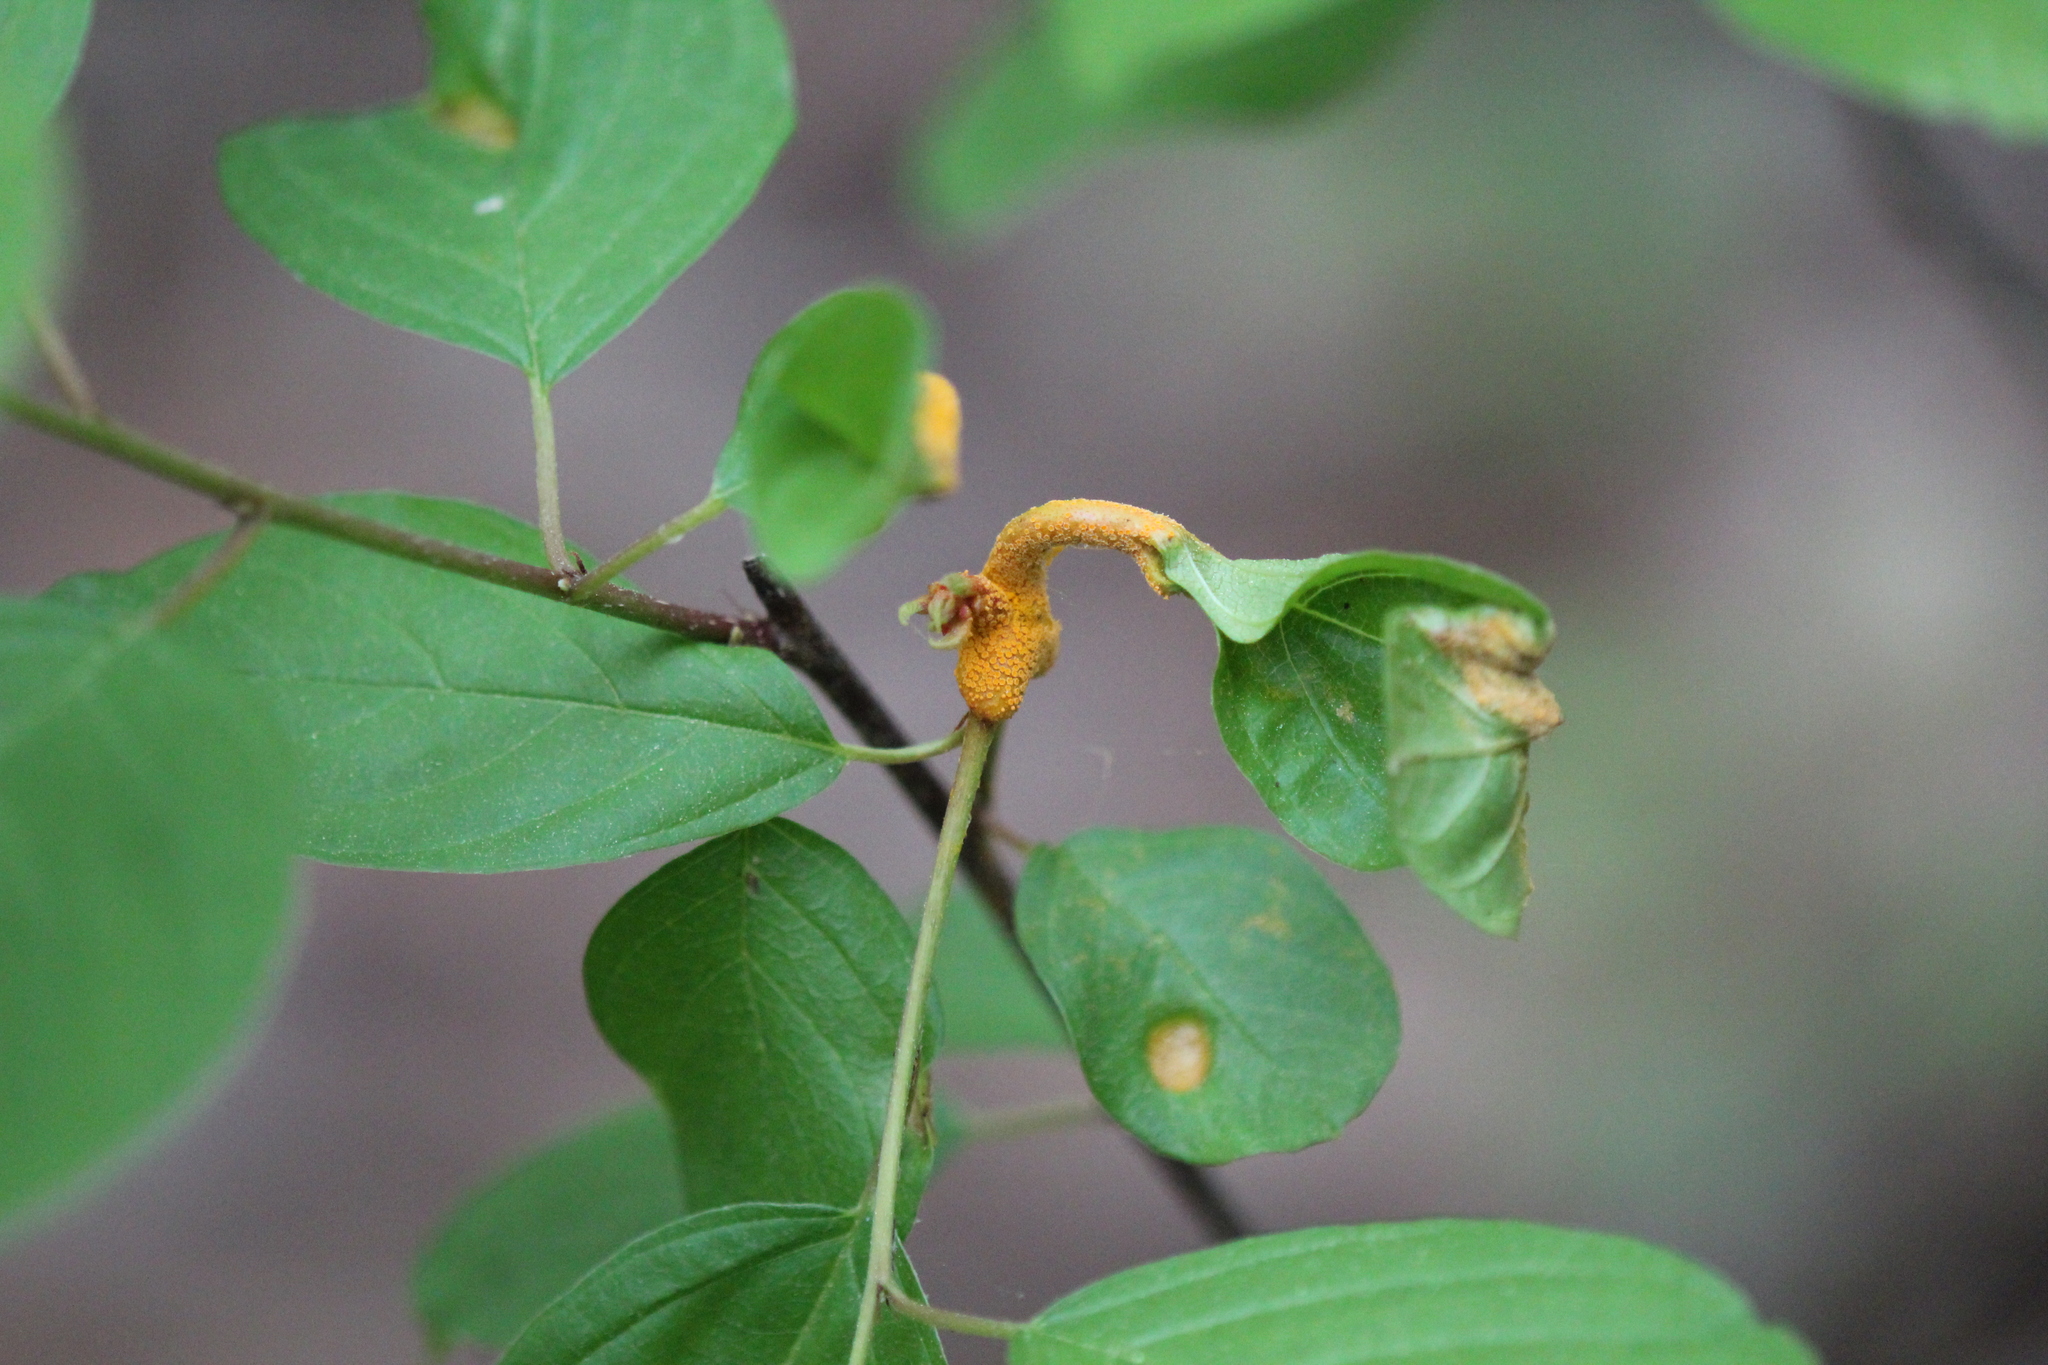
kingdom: Plantae
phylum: Tracheophyta
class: Magnoliopsida
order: Rosales
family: Rhamnaceae
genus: Frangula
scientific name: Frangula alnus
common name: Alder buckthorn
